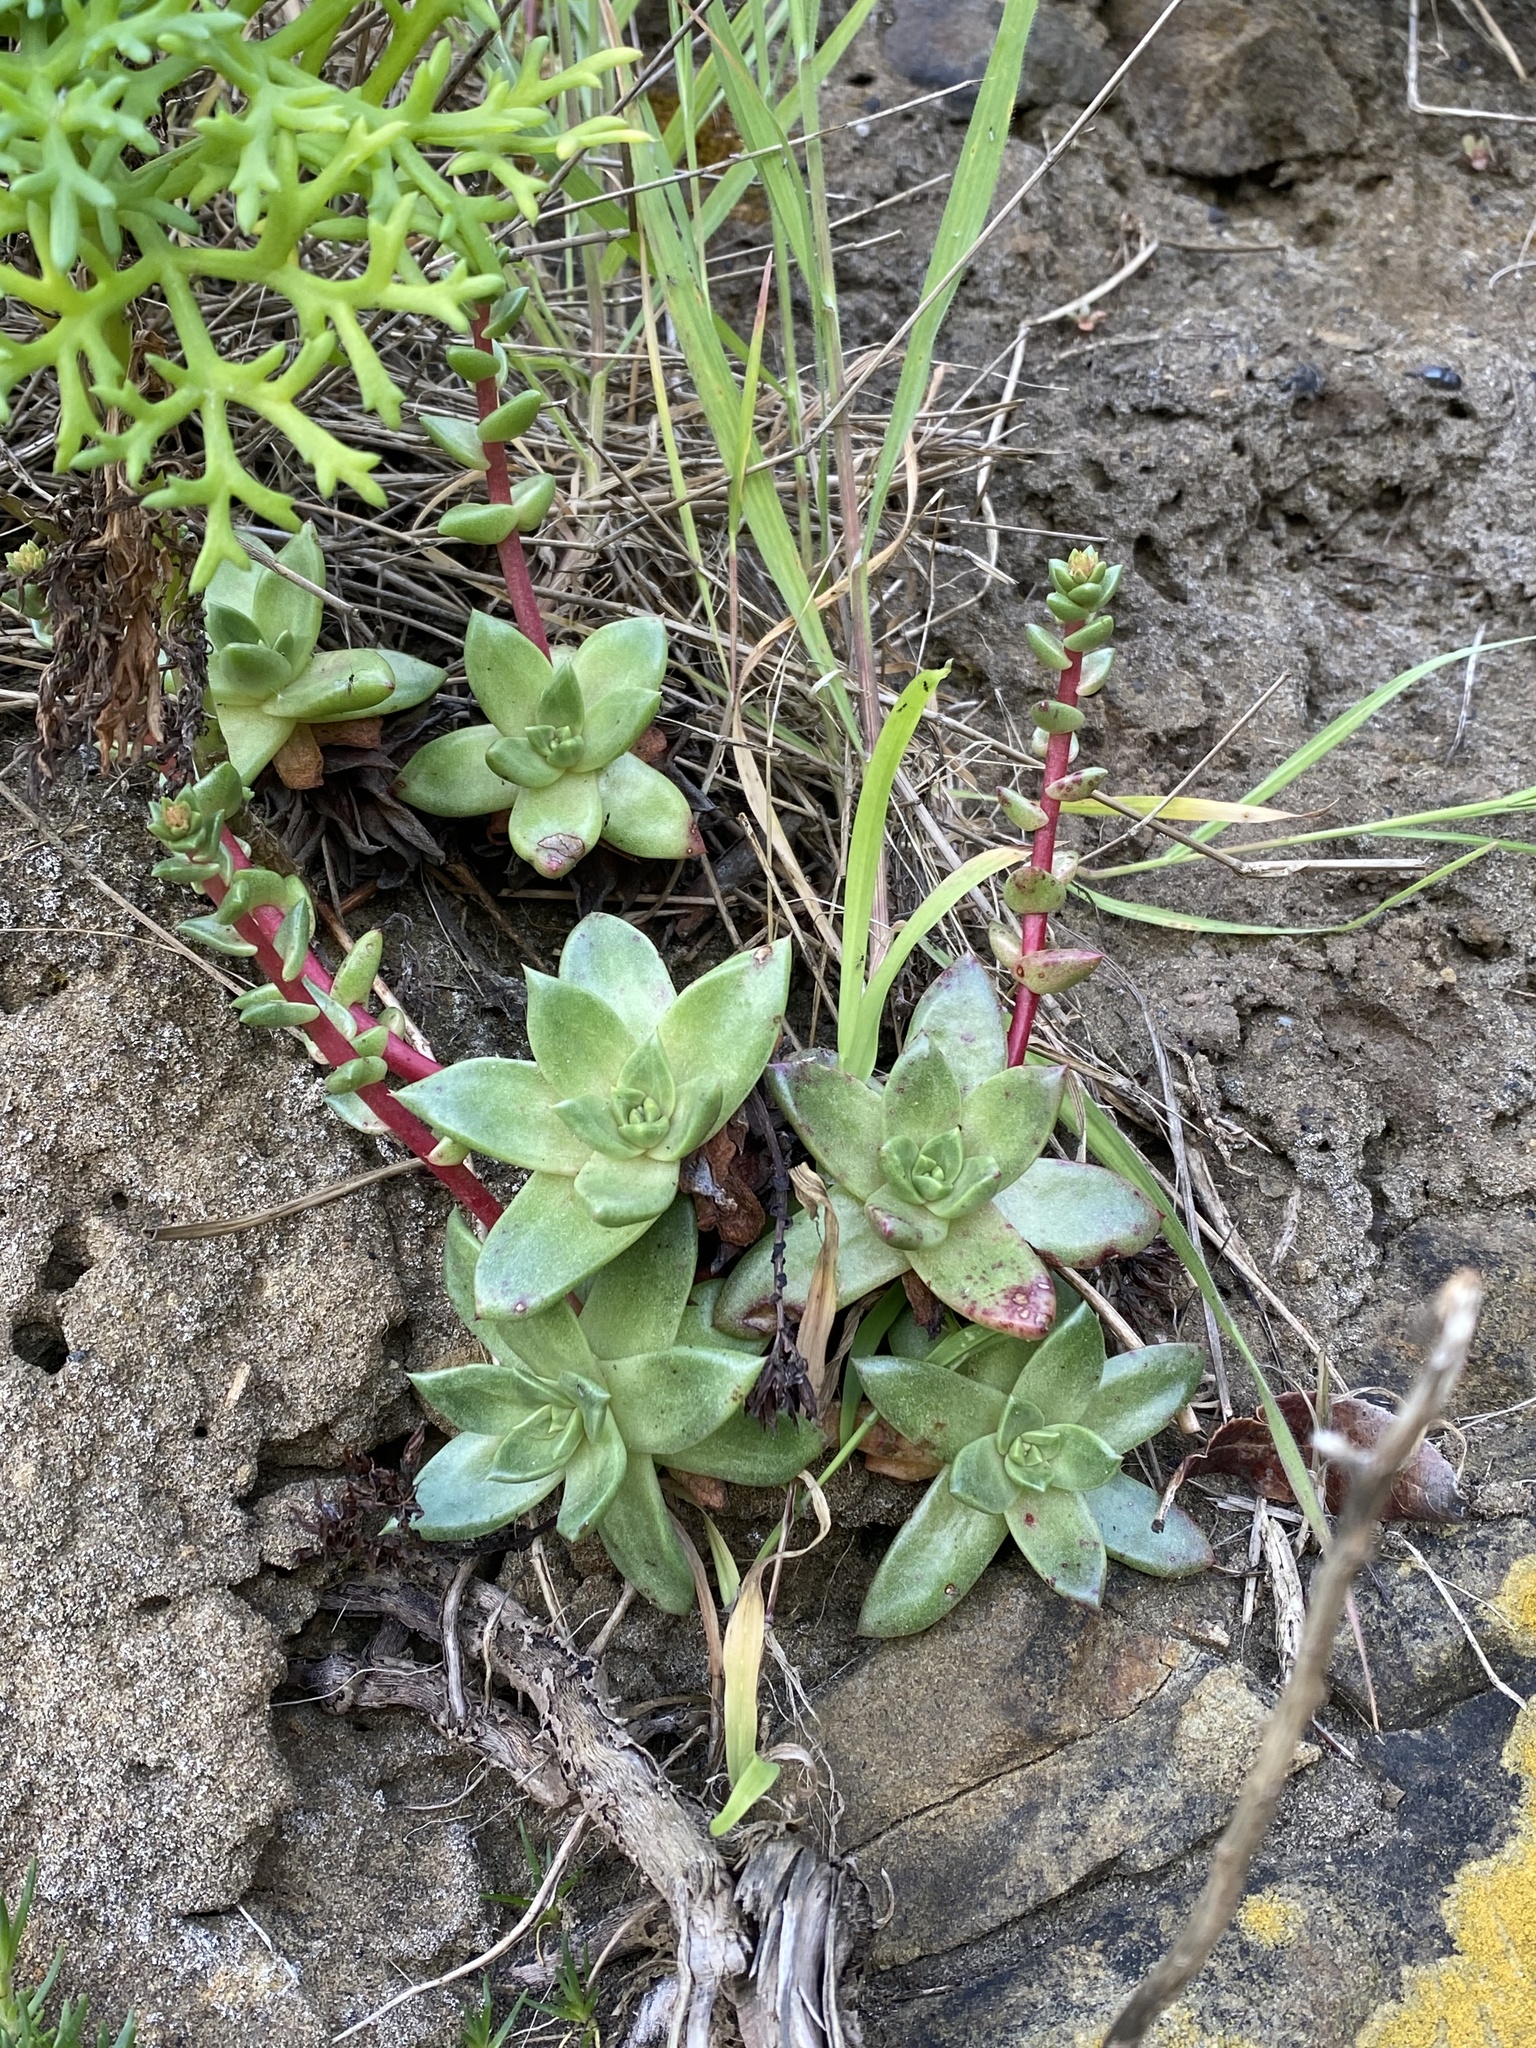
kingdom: Plantae
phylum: Tracheophyta
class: Magnoliopsida
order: Saxifragales
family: Crassulaceae
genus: Dudleya
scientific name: Dudleya farinosa
